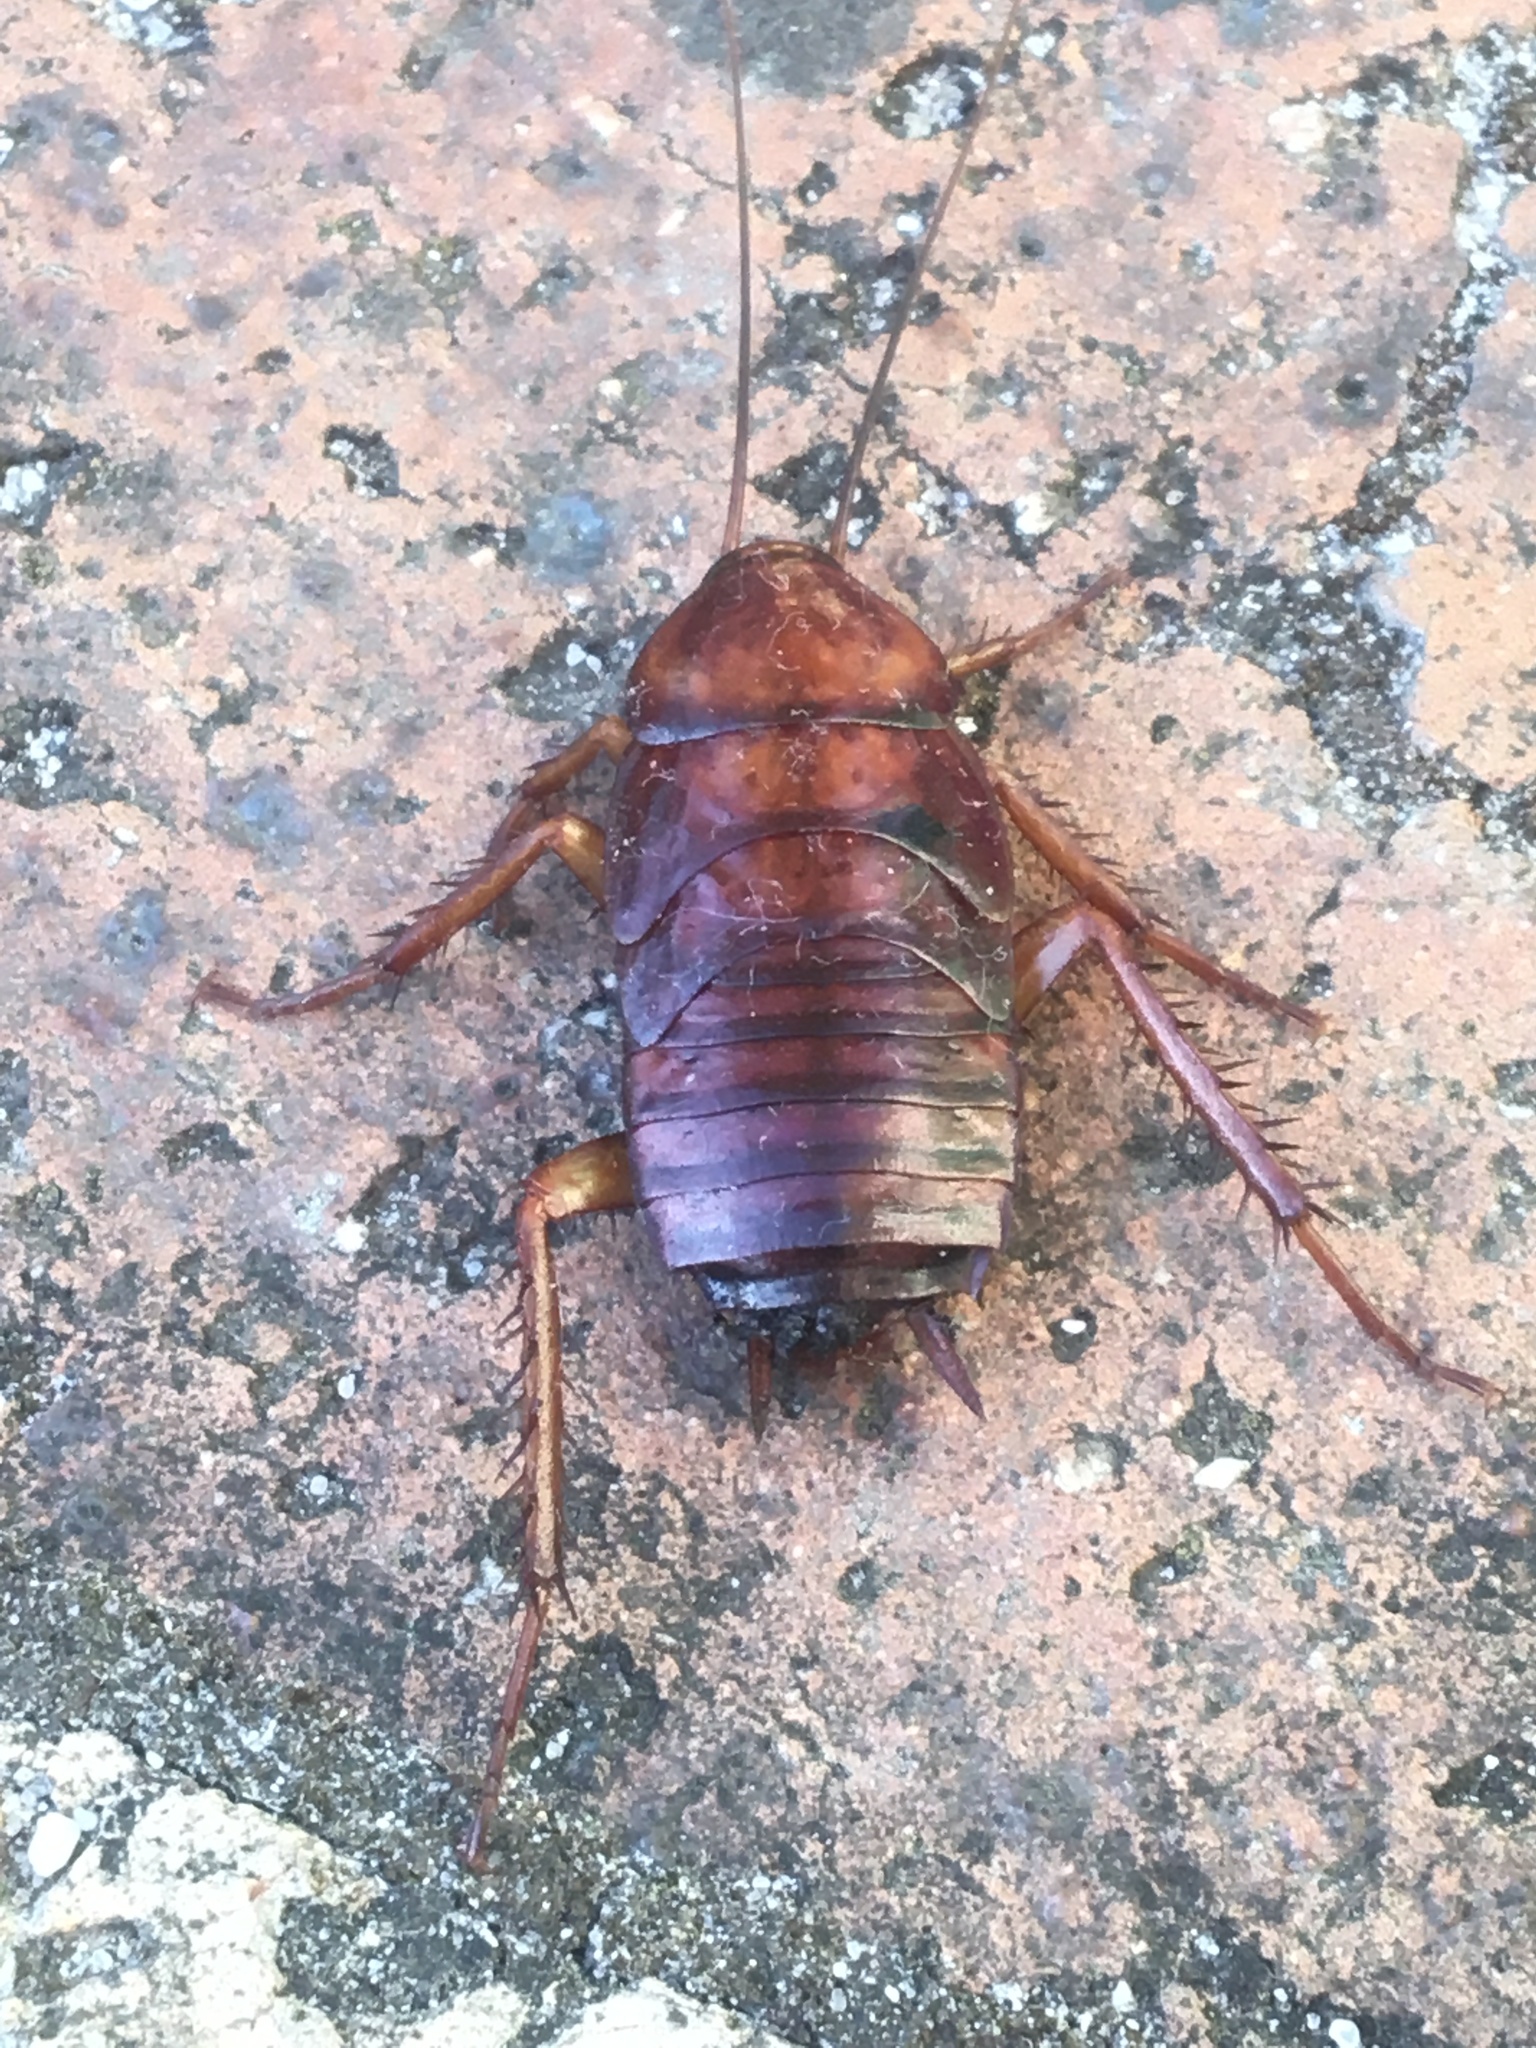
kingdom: Animalia
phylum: Arthropoda
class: Insecta
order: Blattodea
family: Blattidae
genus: Periplaneta
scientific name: Periplaneta americana
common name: American cockroach
